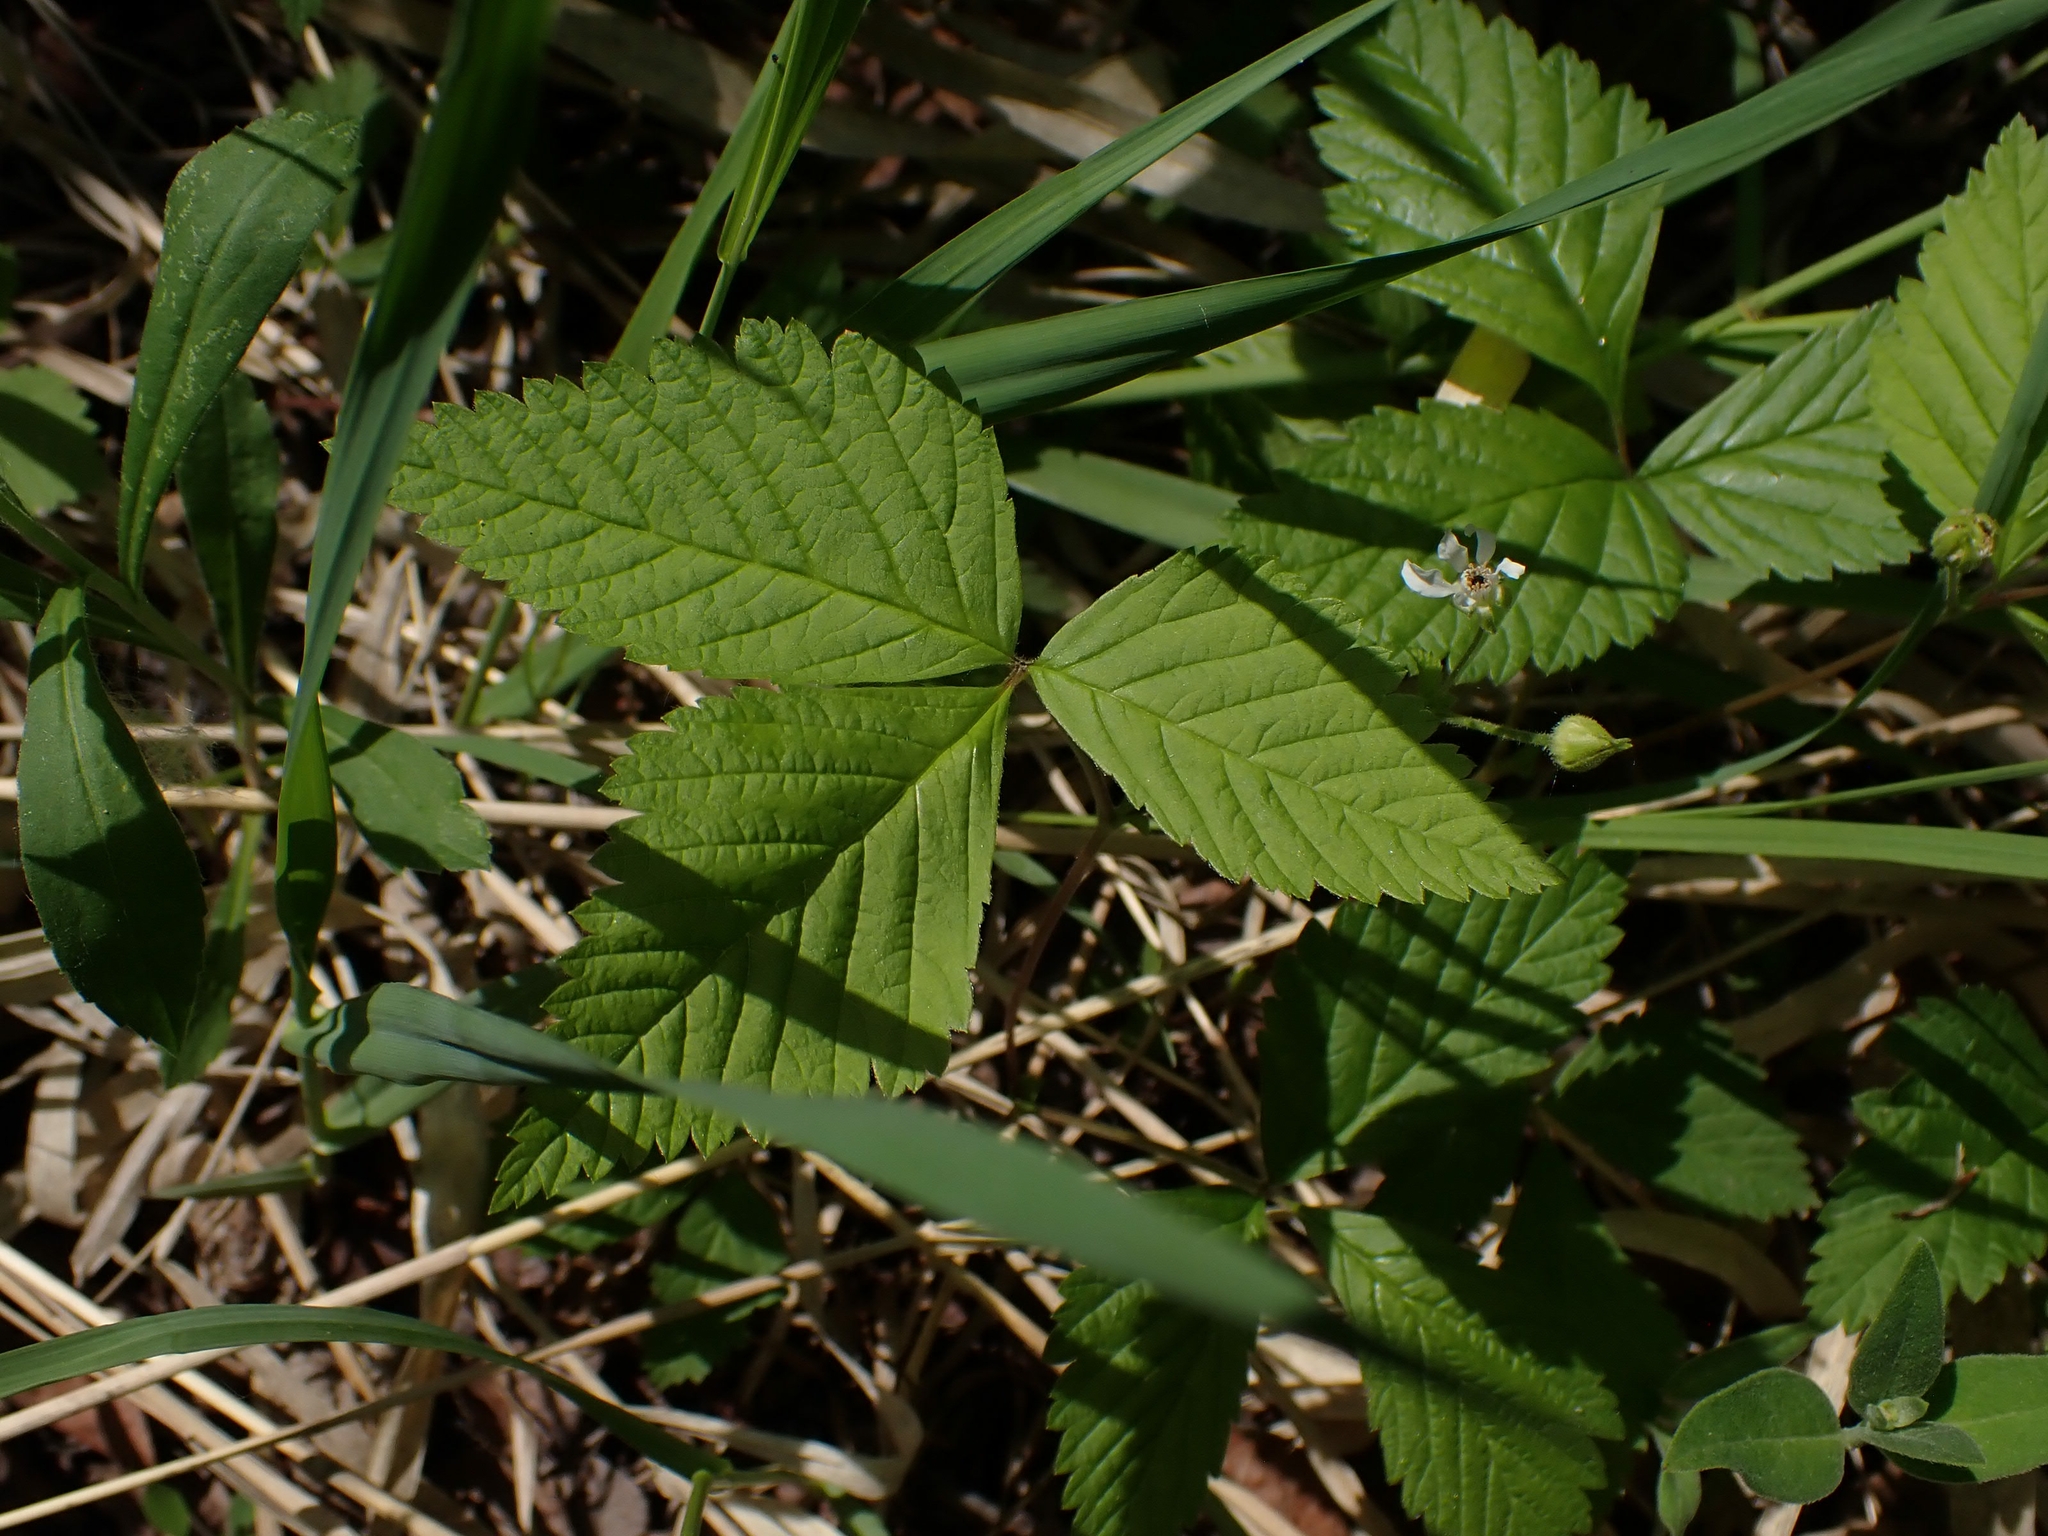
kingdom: Plantae
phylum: Tracheophyta
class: Magnoliopsida
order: Rosales
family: Rosaceae
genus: Rubus
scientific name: Rubus pubescens
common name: Dwarf raspberry
